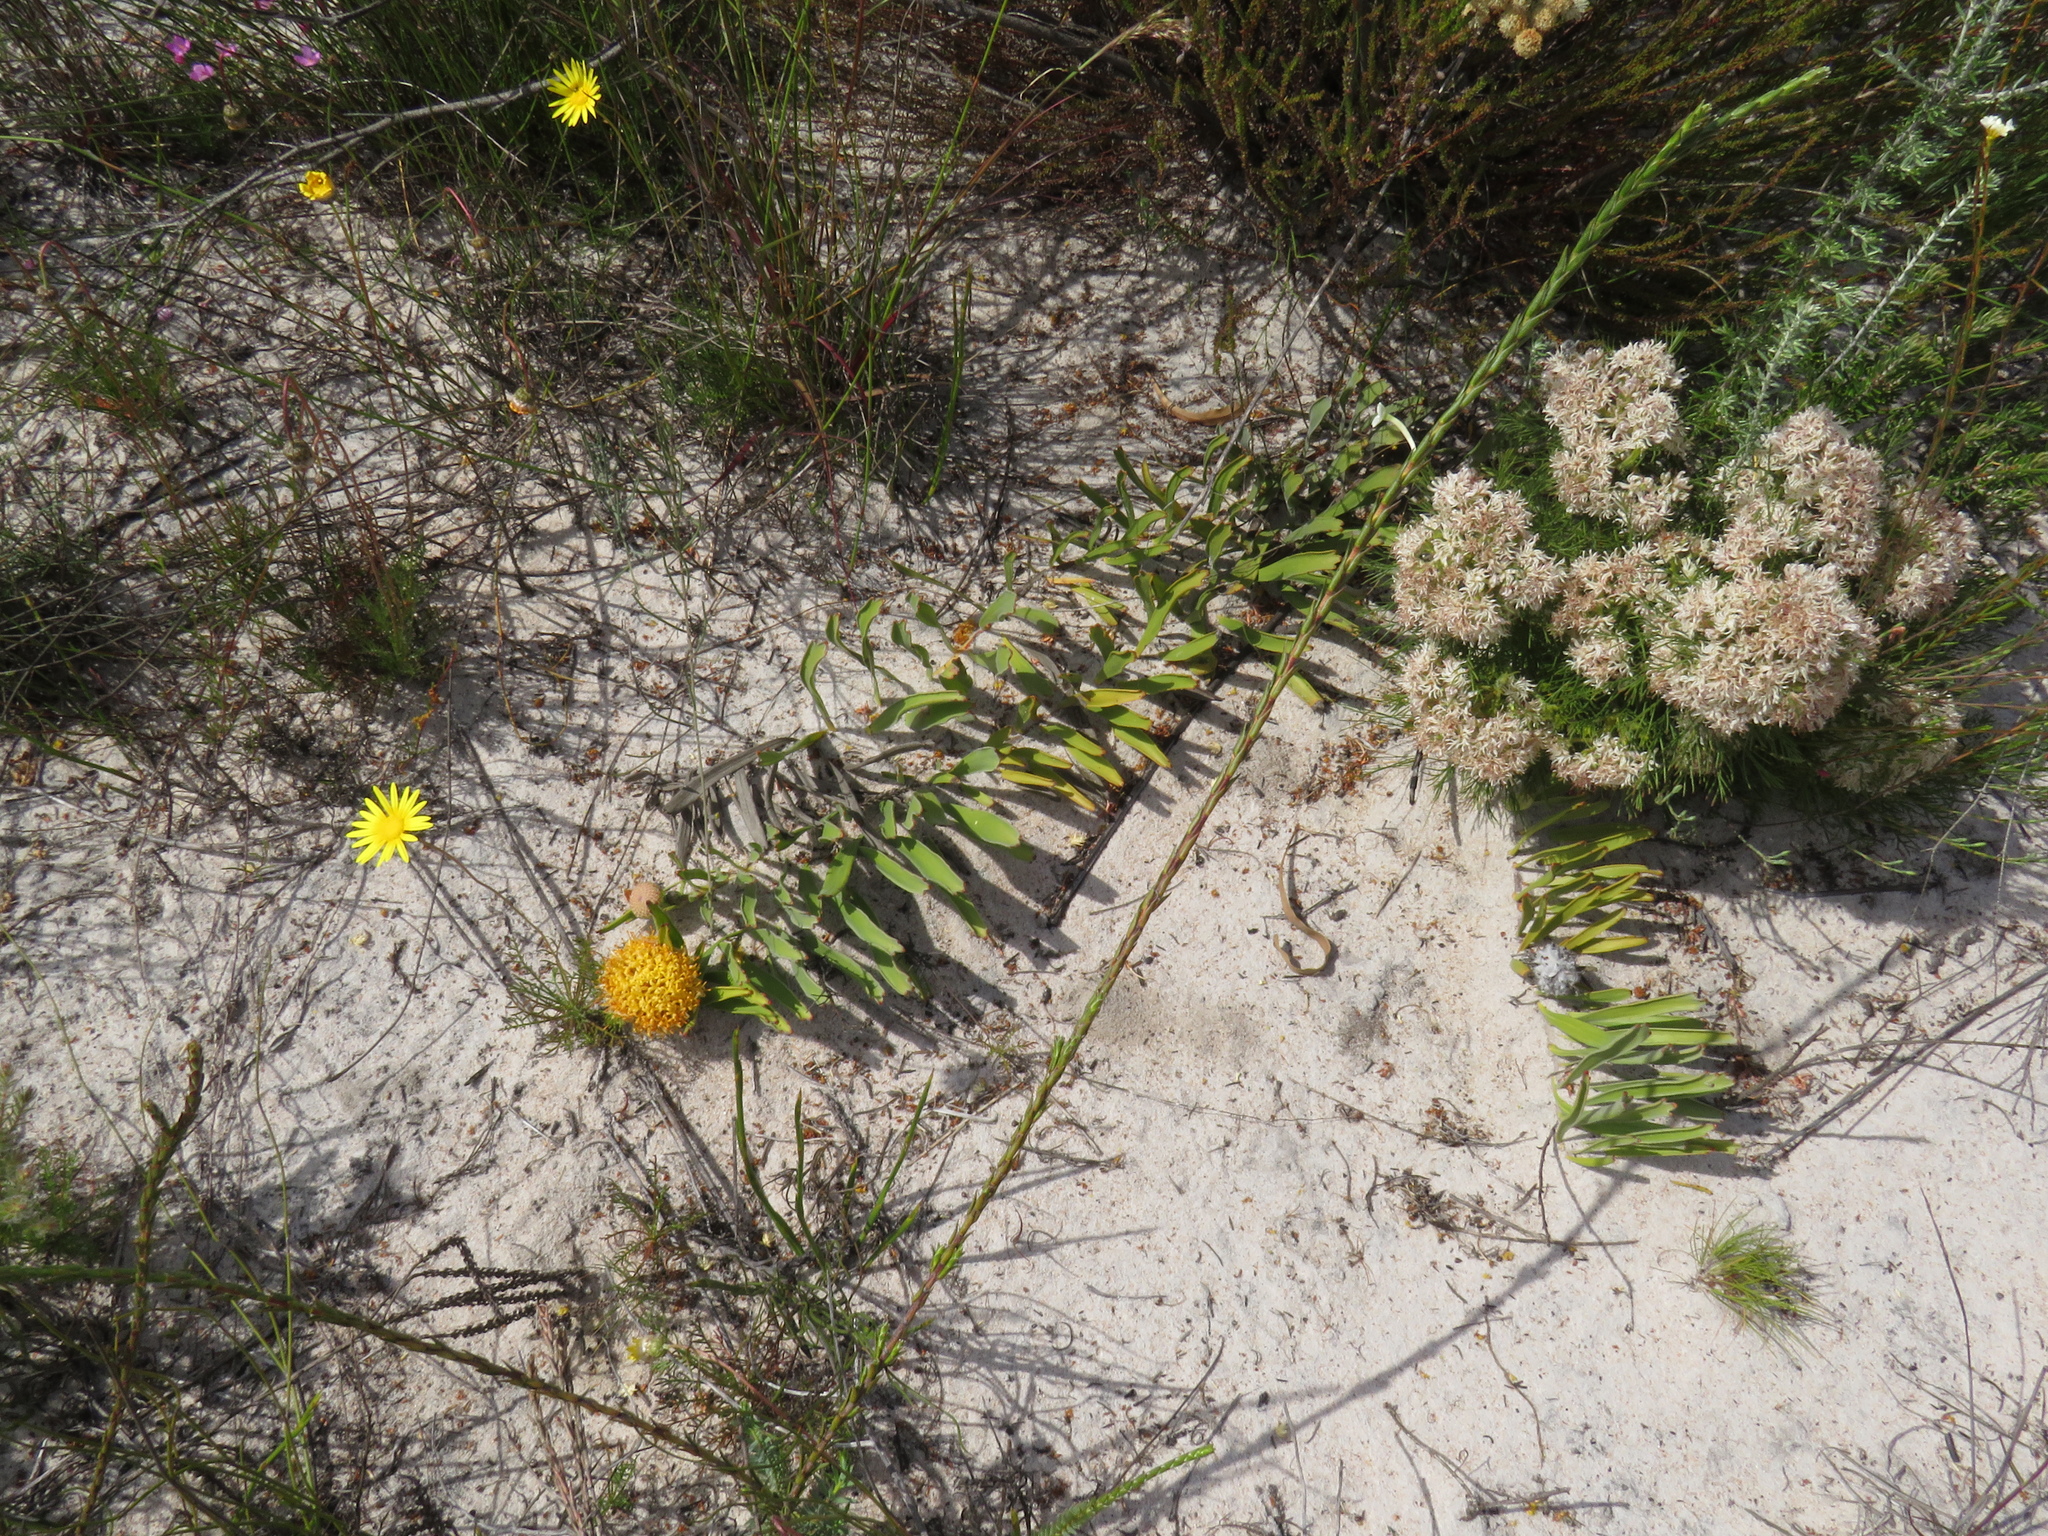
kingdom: Plantae
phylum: Tracheophyta
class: Magnoliopsida
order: Proteales
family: Proteaceae
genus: Leucospermum
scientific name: Leucospermum hypophyllocarpodendron
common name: Snakestem pincushion
